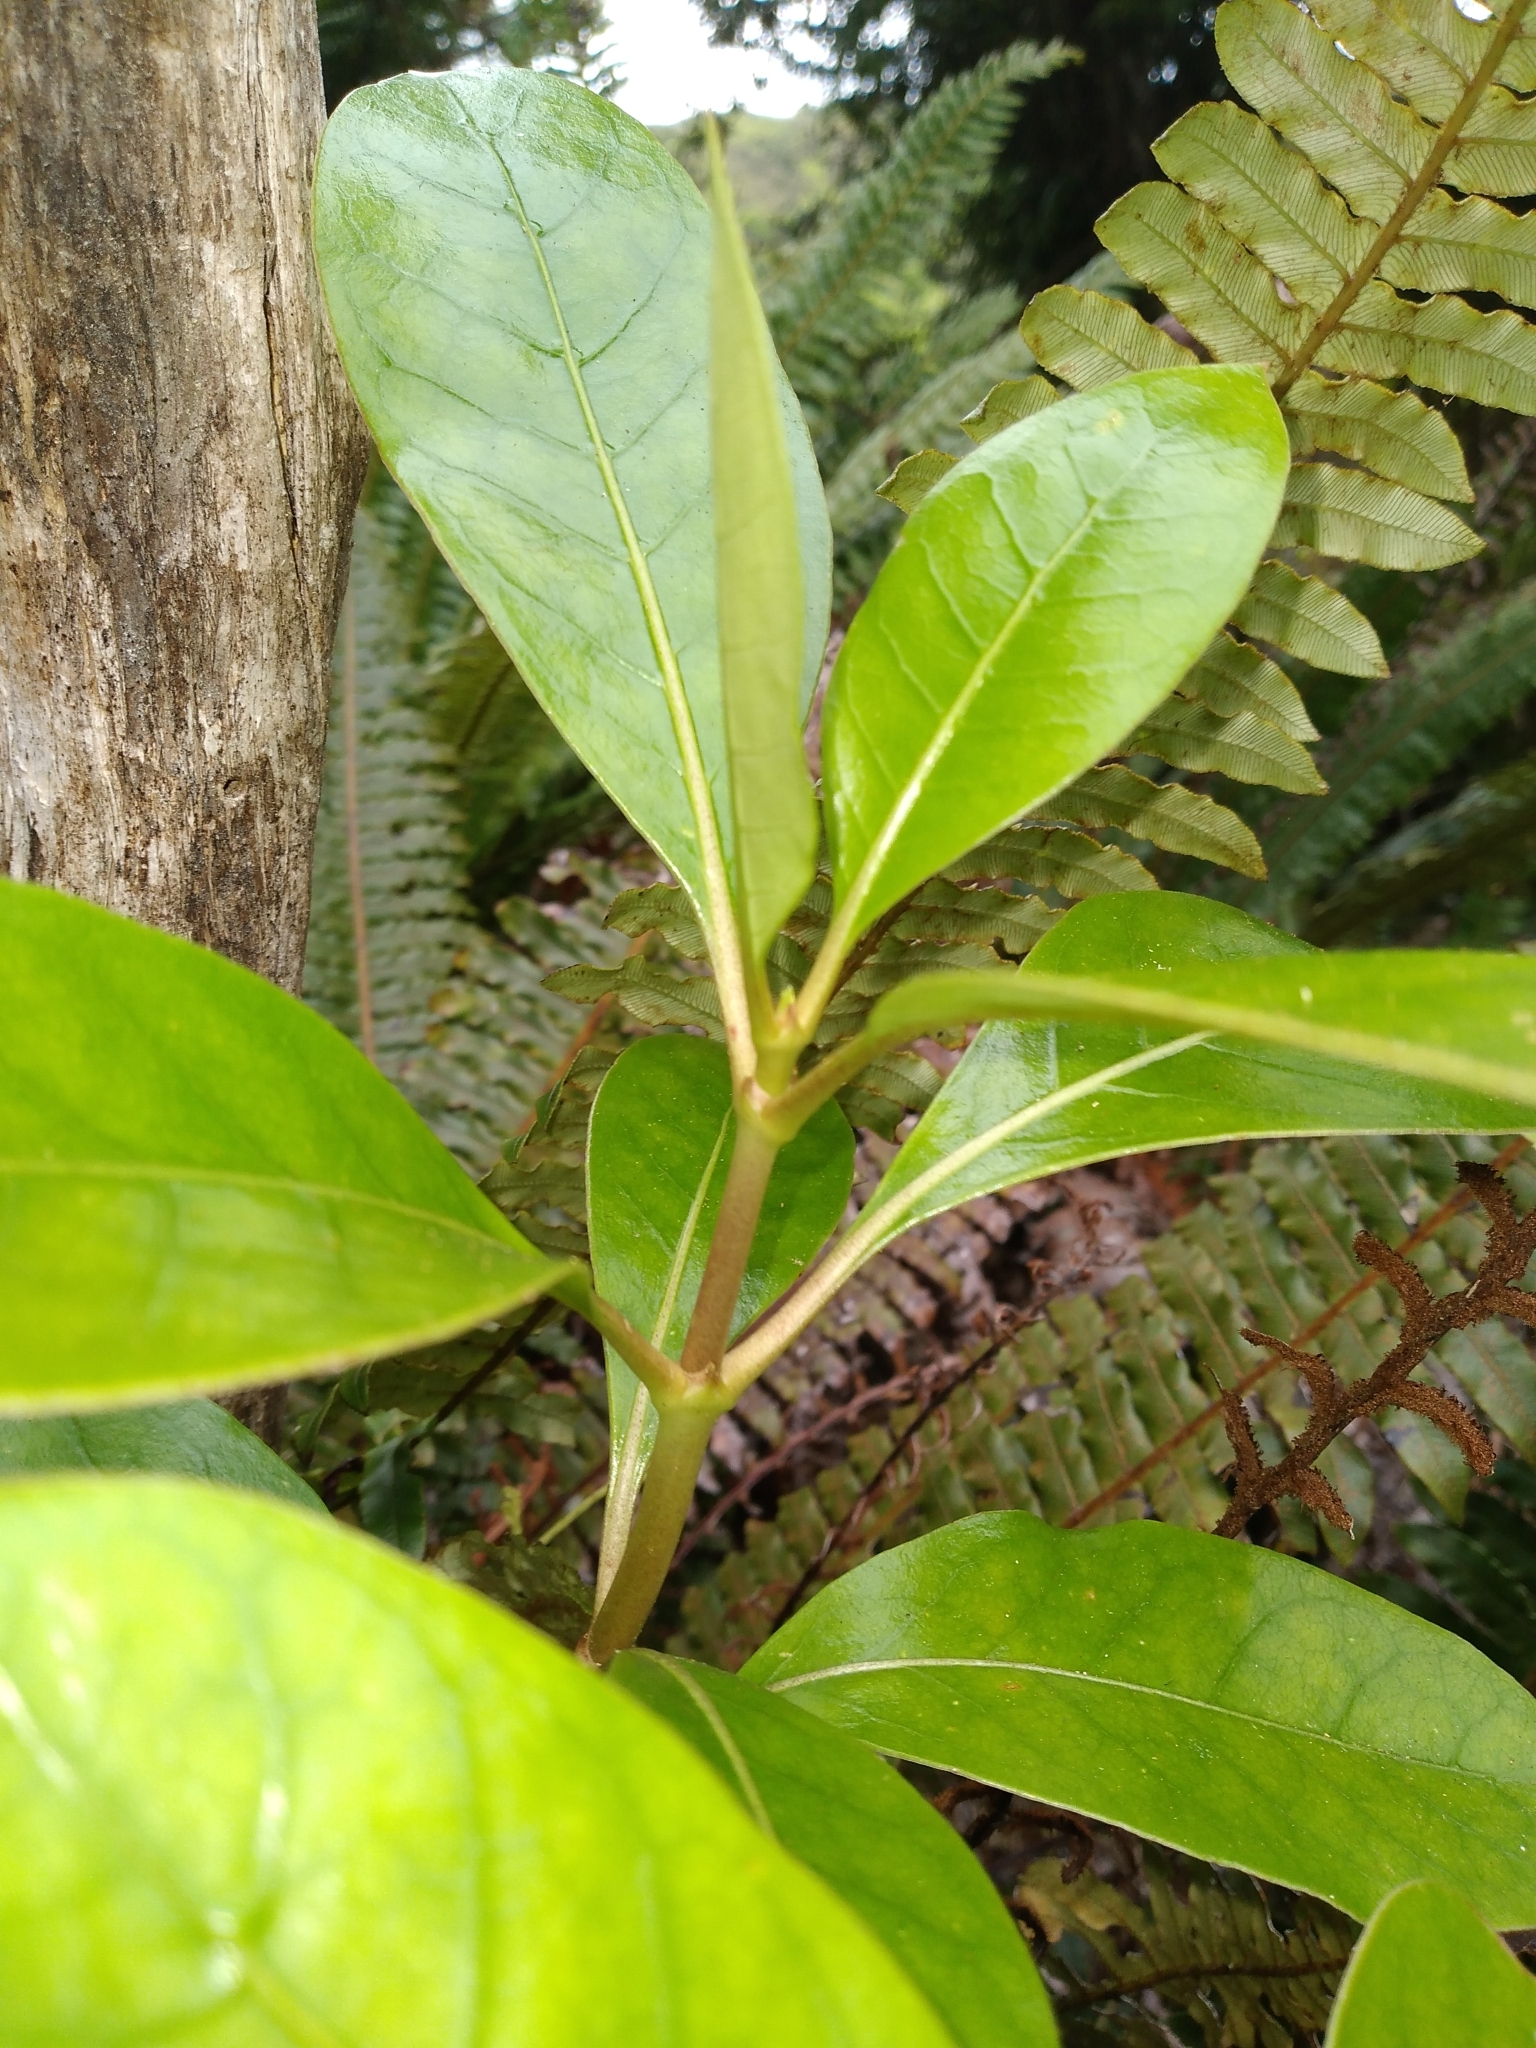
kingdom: Plantae
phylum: Tracheophyta
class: Magnoliopsida
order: Gentianales
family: Rubiaceae
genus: Coprosma
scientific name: Coprosma lucida
